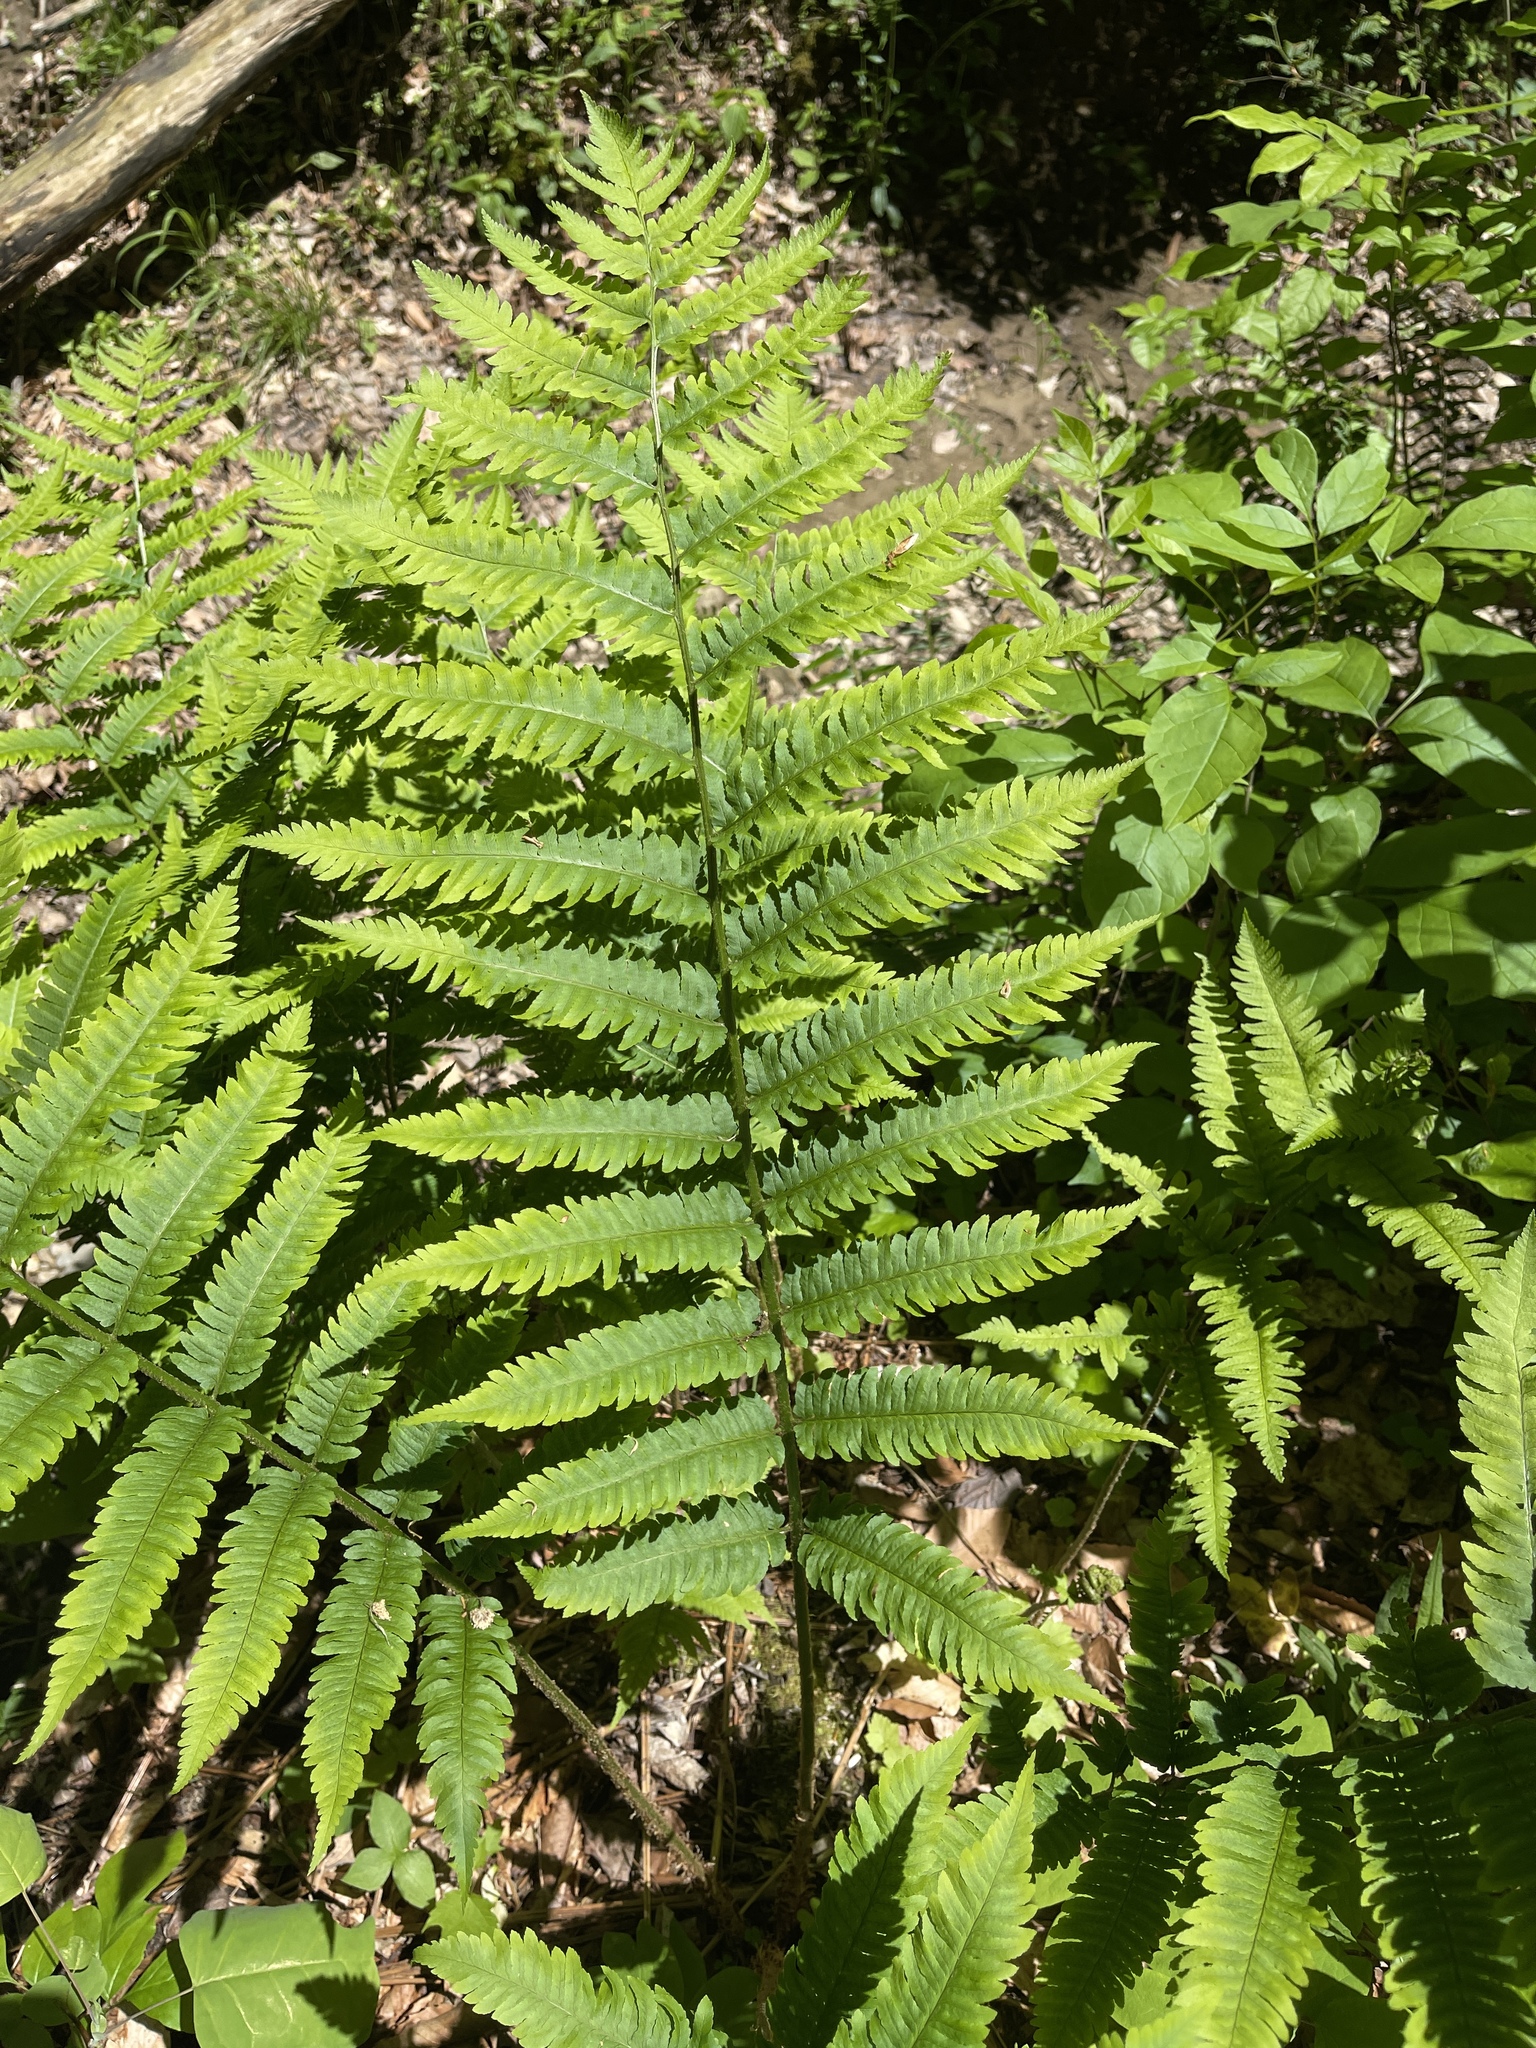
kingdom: Plantae
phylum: Tracheophyta
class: Polypodiopsida
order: Polypodiales
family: Dryopteridaceae
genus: Dryopteris
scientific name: Dryopteris goldieana
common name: Goldie's fern
